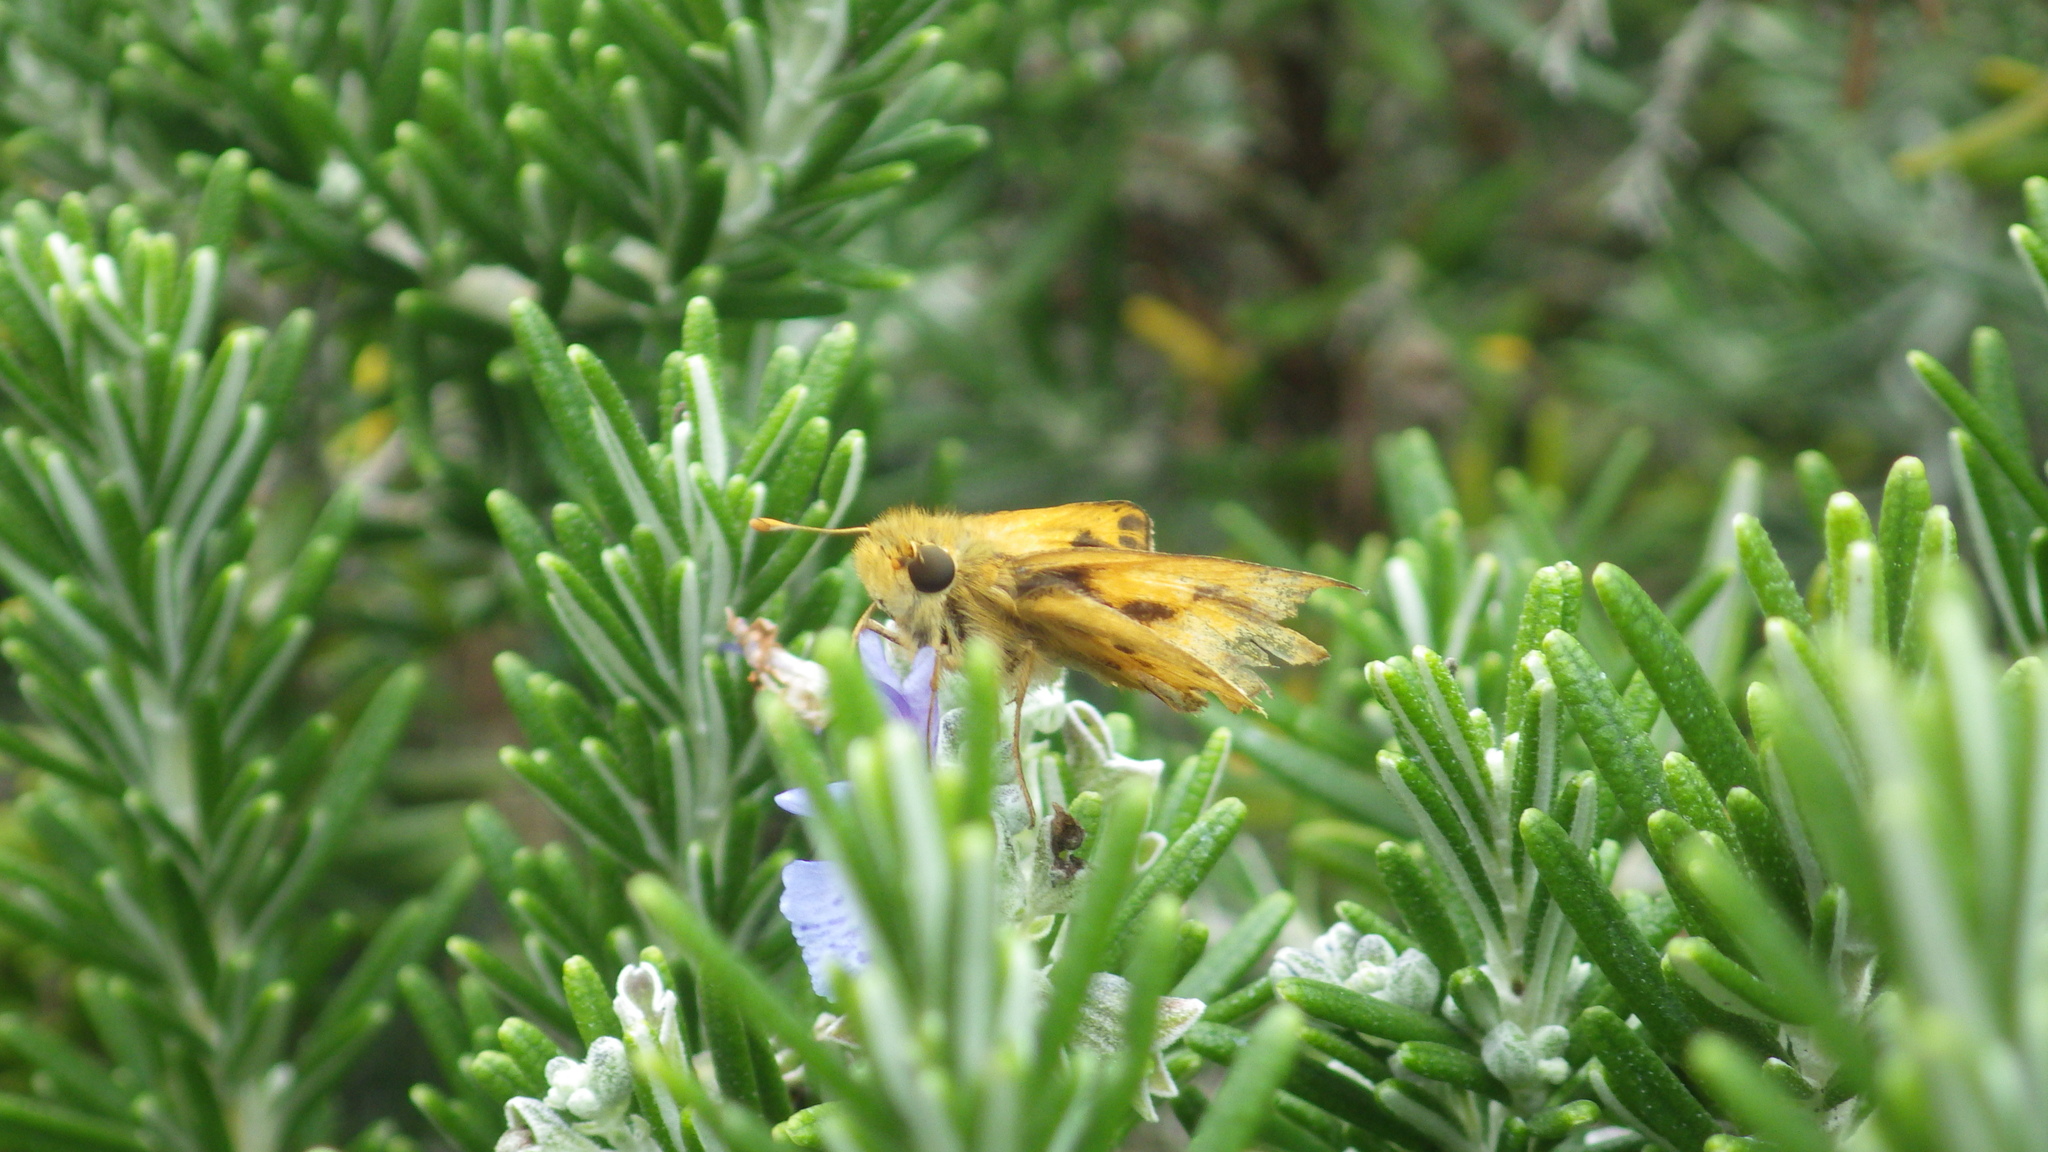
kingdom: Animalia
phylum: Arthropoda
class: Insecta
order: Lepidoptera
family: Hesperiidae
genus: Hylephila
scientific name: Hylephila phyleus
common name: Fiery skipper
